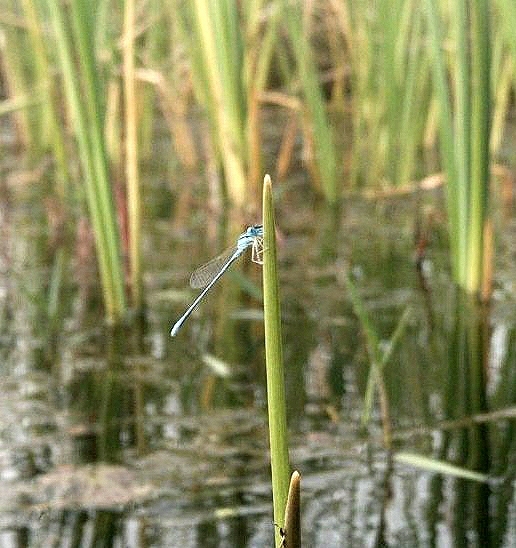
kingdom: Animalia
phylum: Arthropoda
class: Insecta
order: Odonata
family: Coenagrionidae
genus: Amphiallagma
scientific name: Amphiallagma parvum
